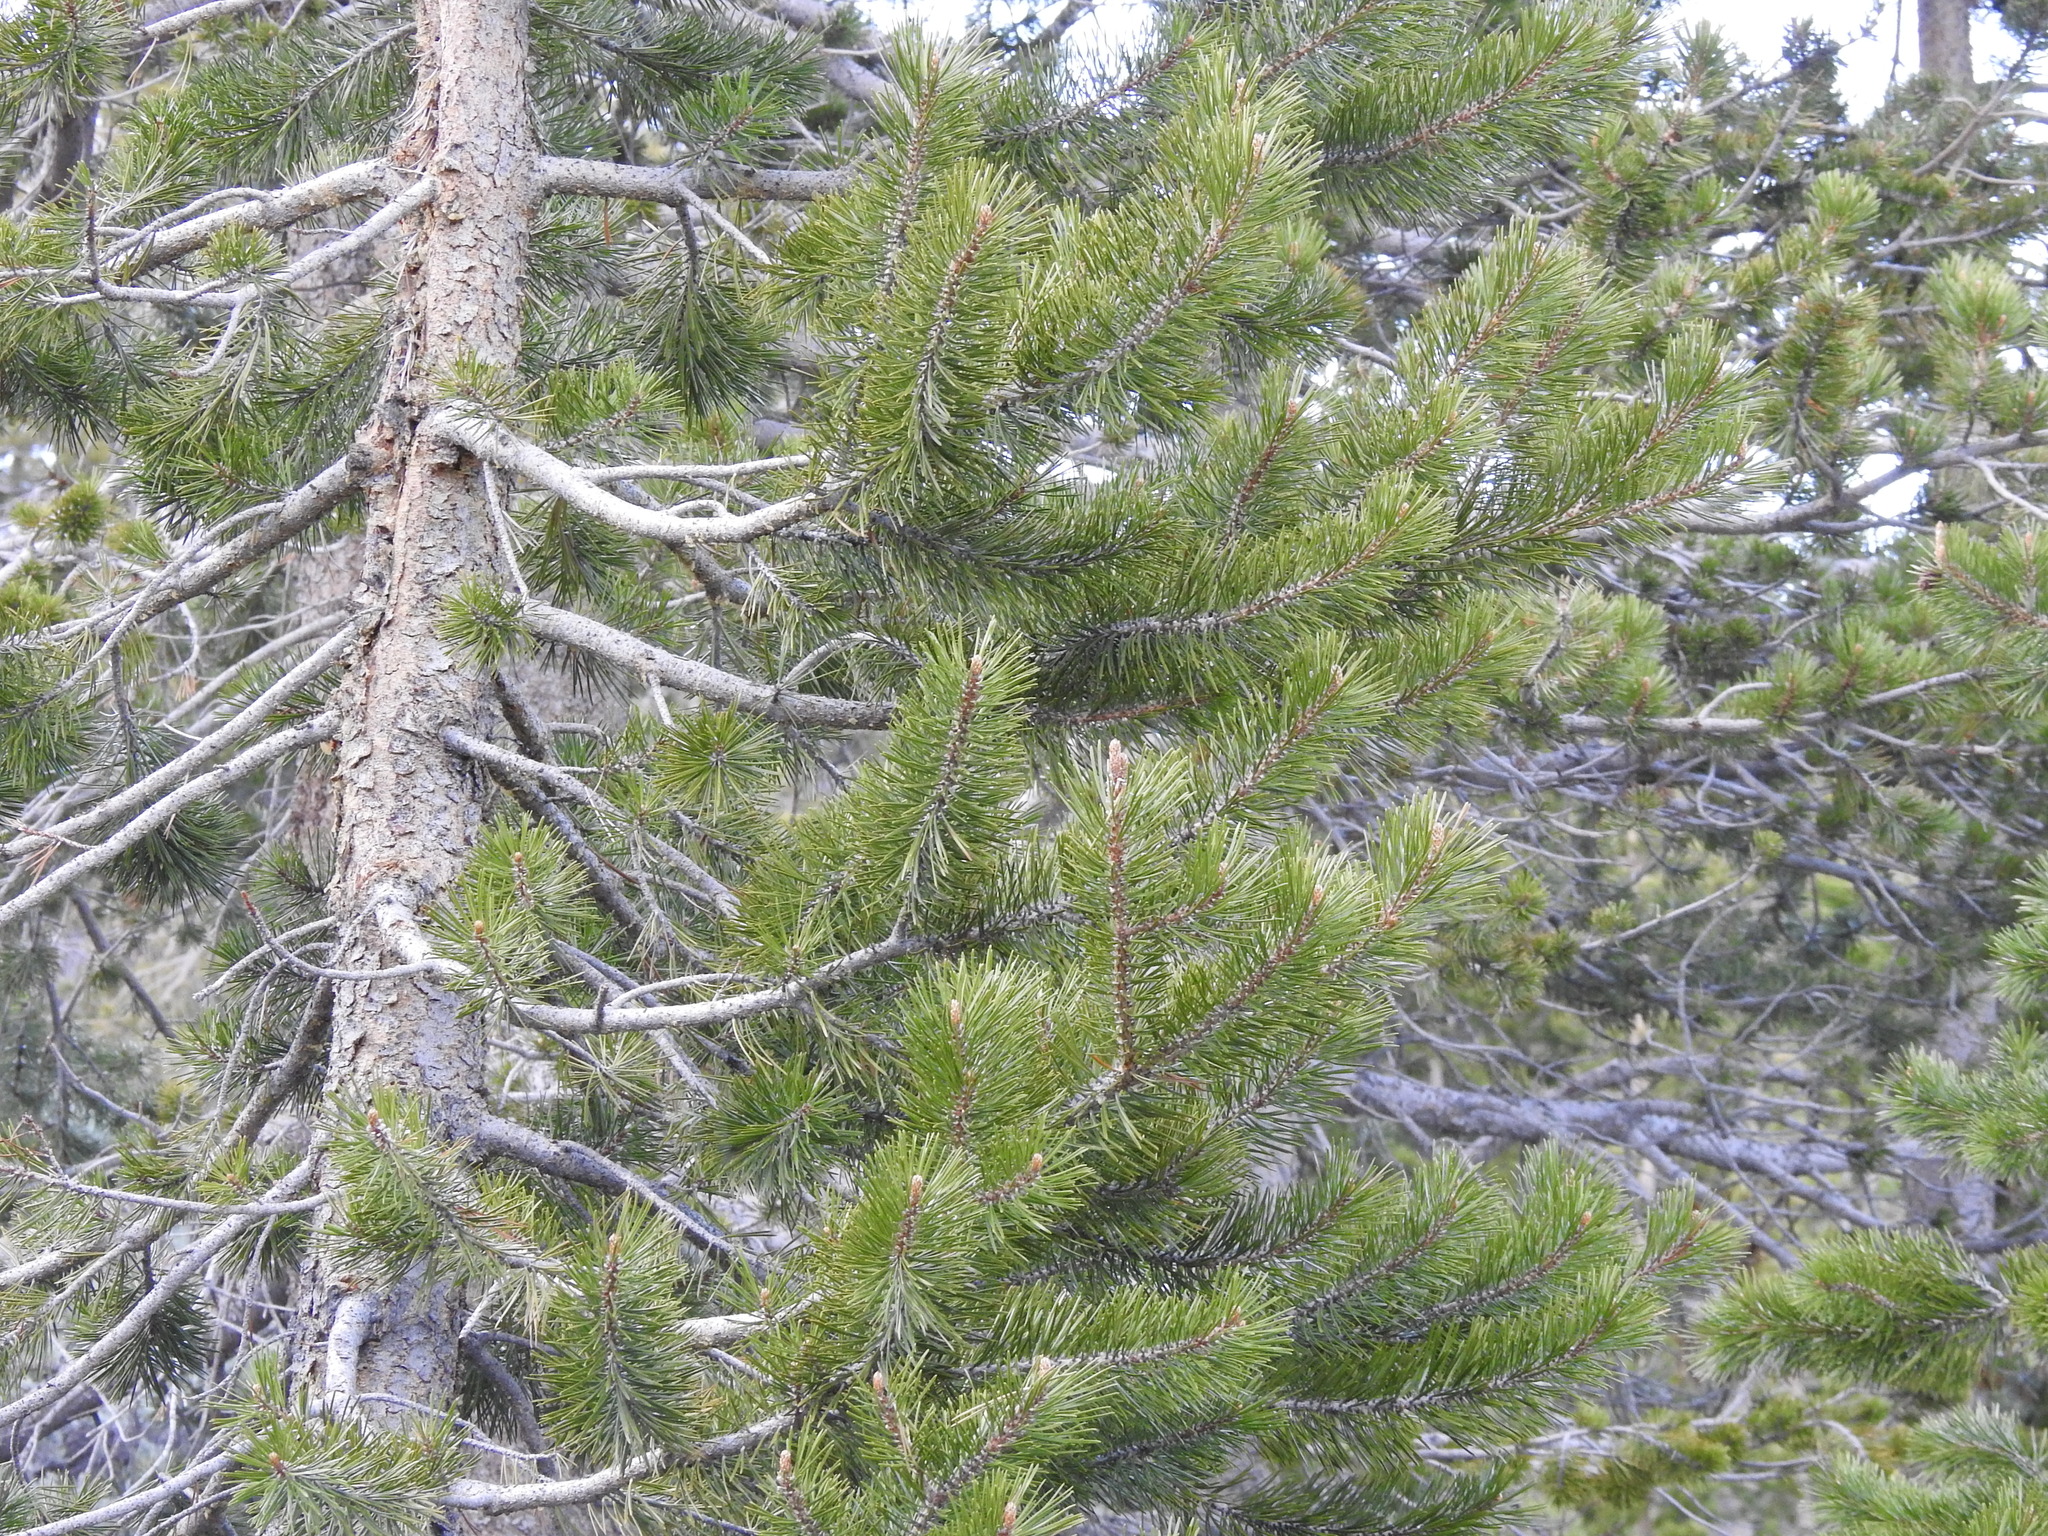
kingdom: Plantae
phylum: Tracheophyta
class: Pinopsida
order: Pinales
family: Pinaceae
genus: Pinus
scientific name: Pinus contorta
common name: Lodgepole pine
